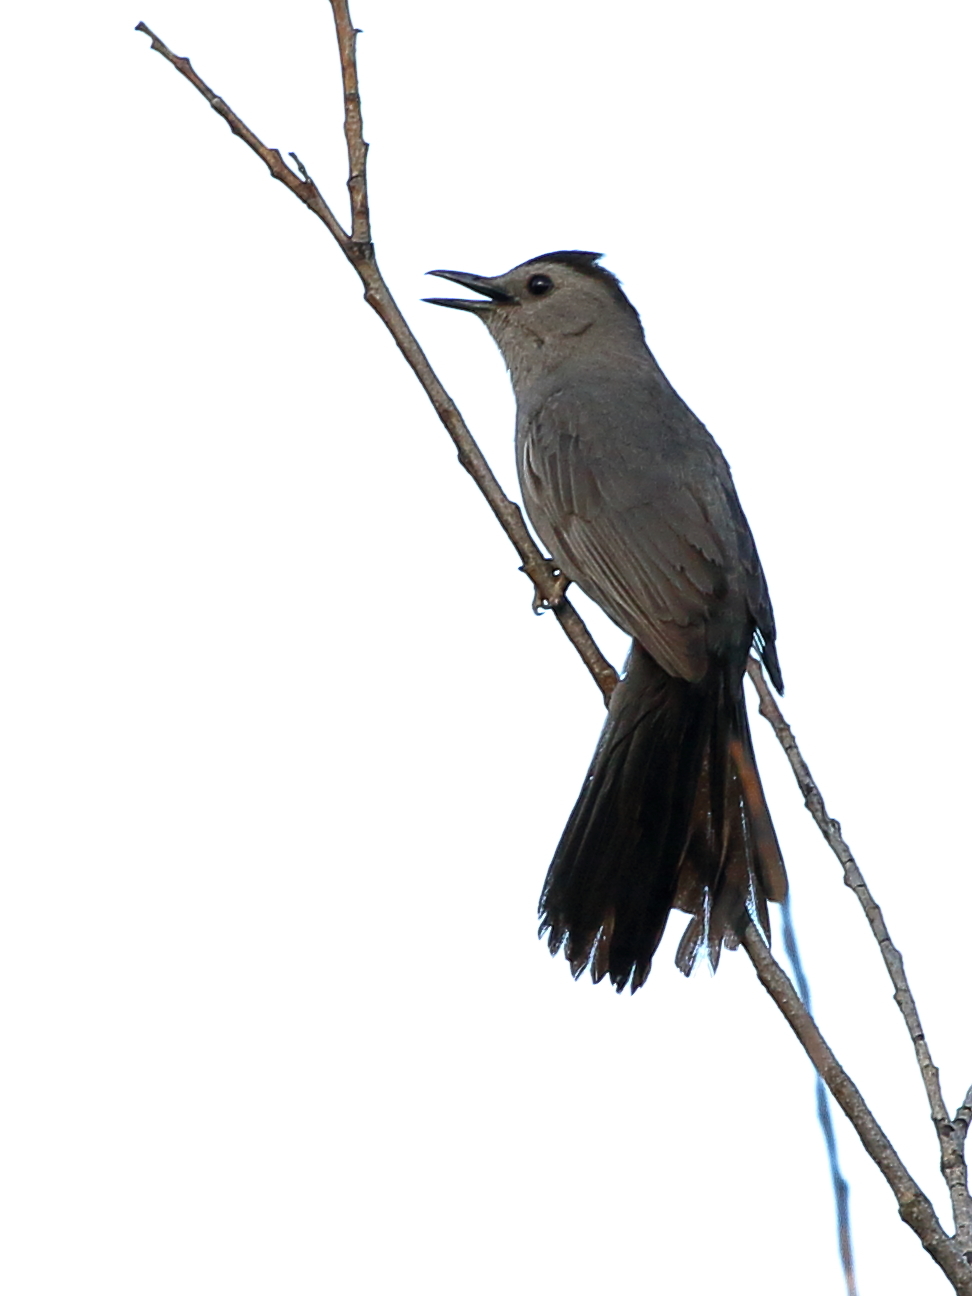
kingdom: Animalia
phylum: Chordata
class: Aves
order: Passeriformes
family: Mimidae
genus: Dumetella
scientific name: Dumetella carolinensis
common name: Gray catbird
